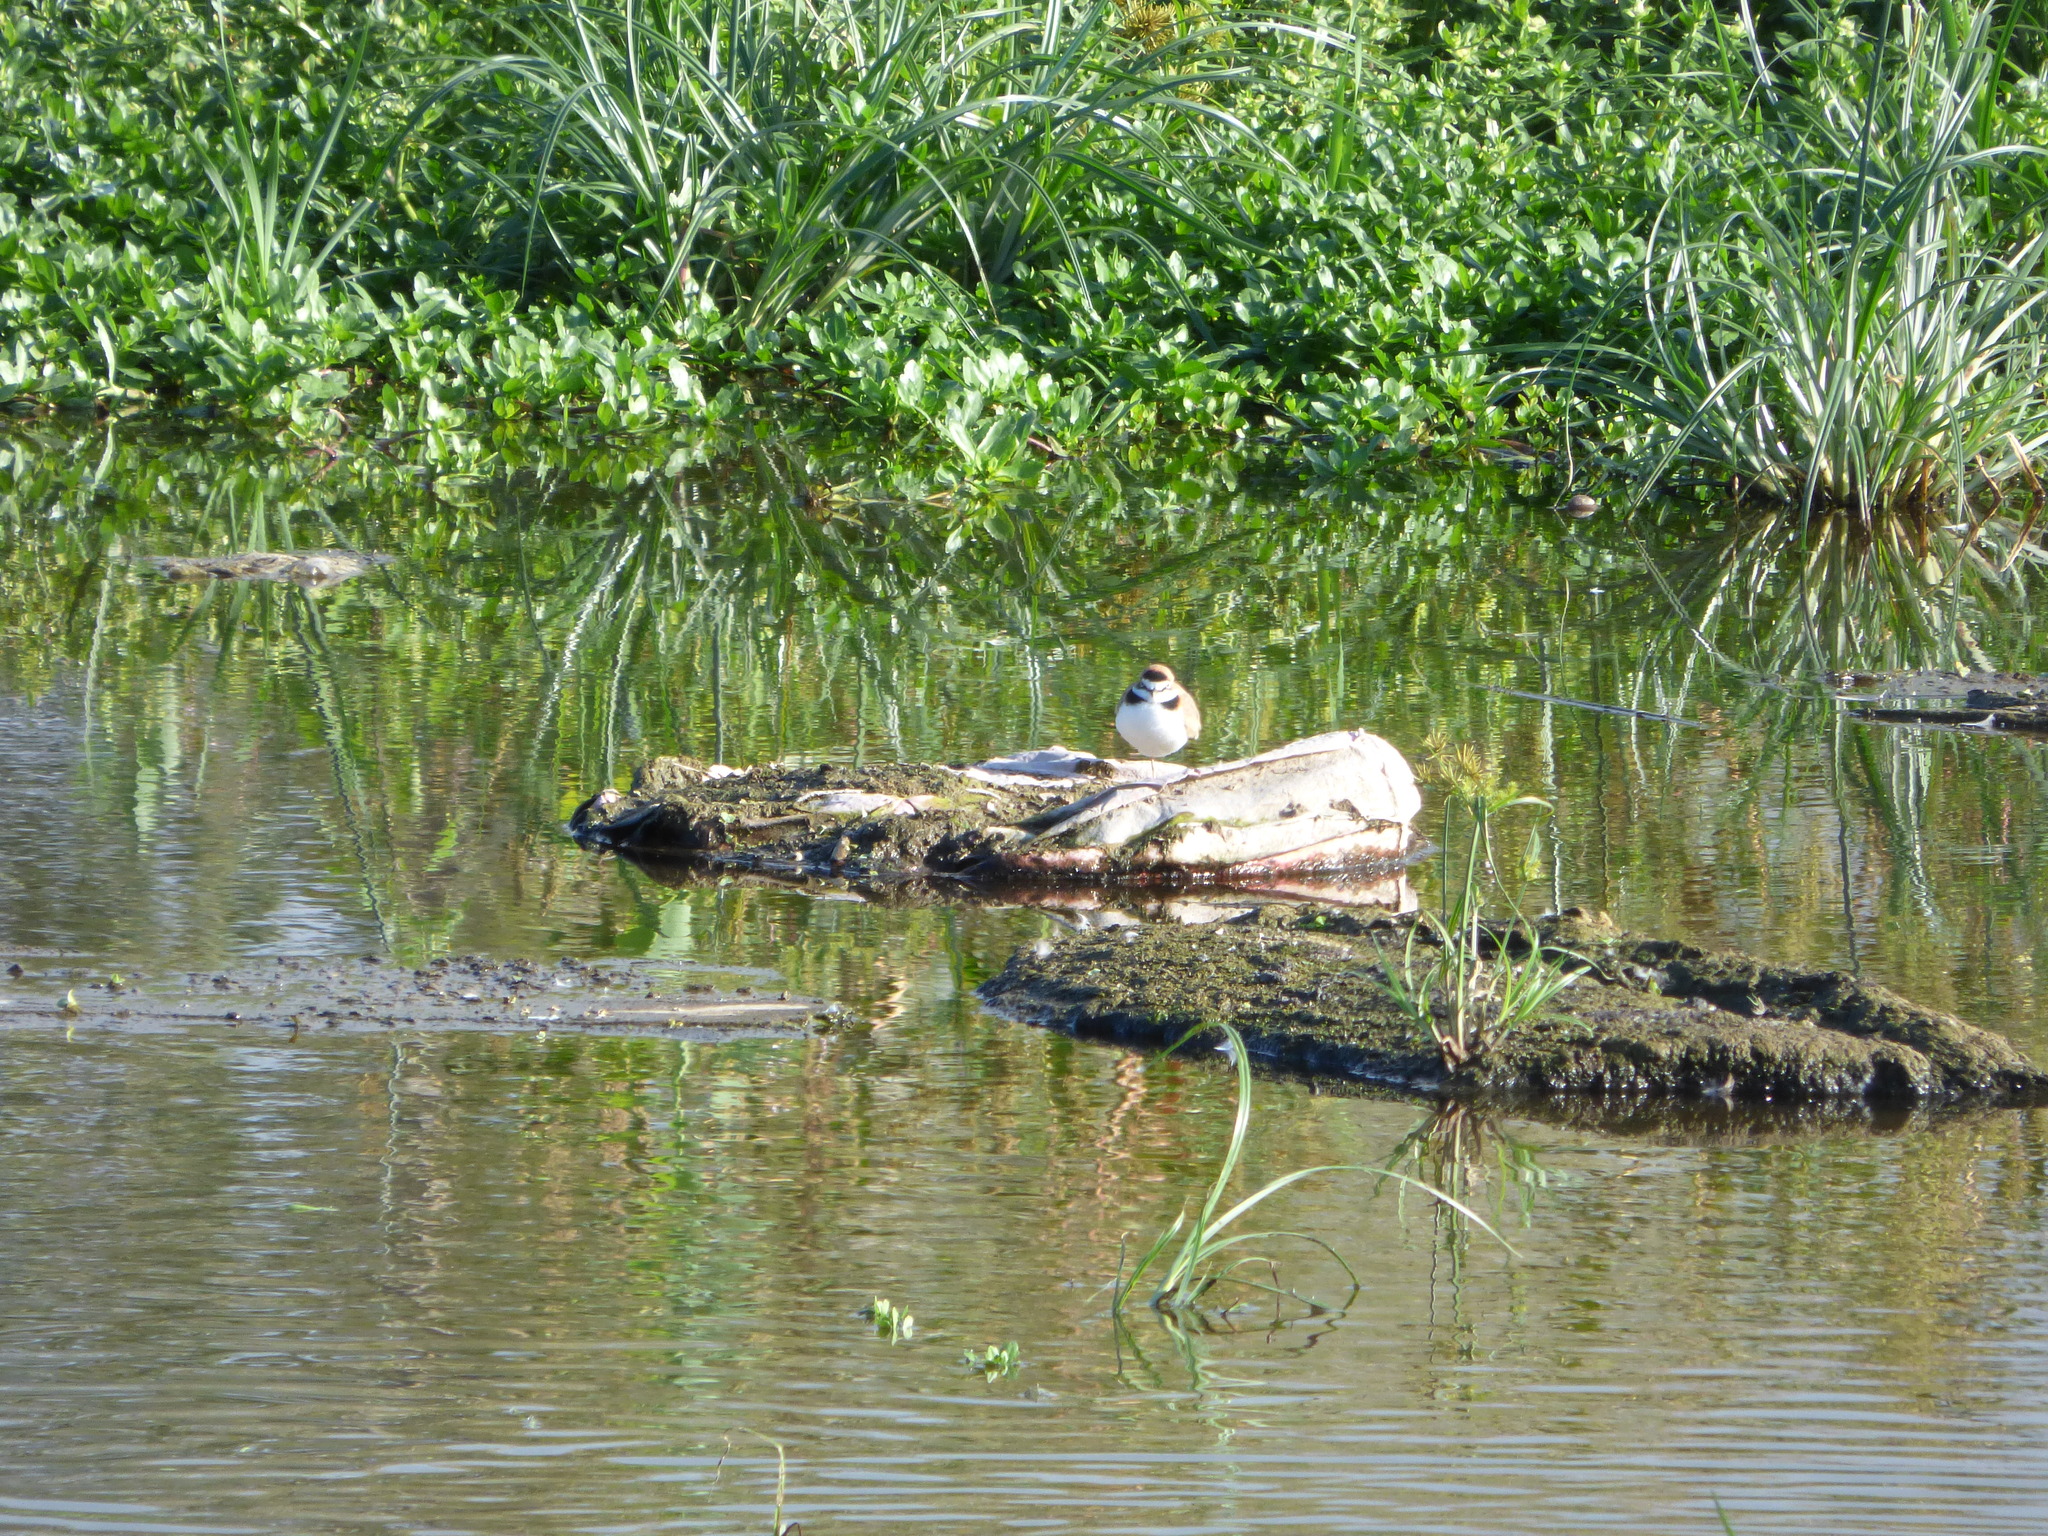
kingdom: Animalia
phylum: Chordata
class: Aves
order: Charadriiformes
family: Charadriidae
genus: Anarhynchus
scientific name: Anarhynchus
